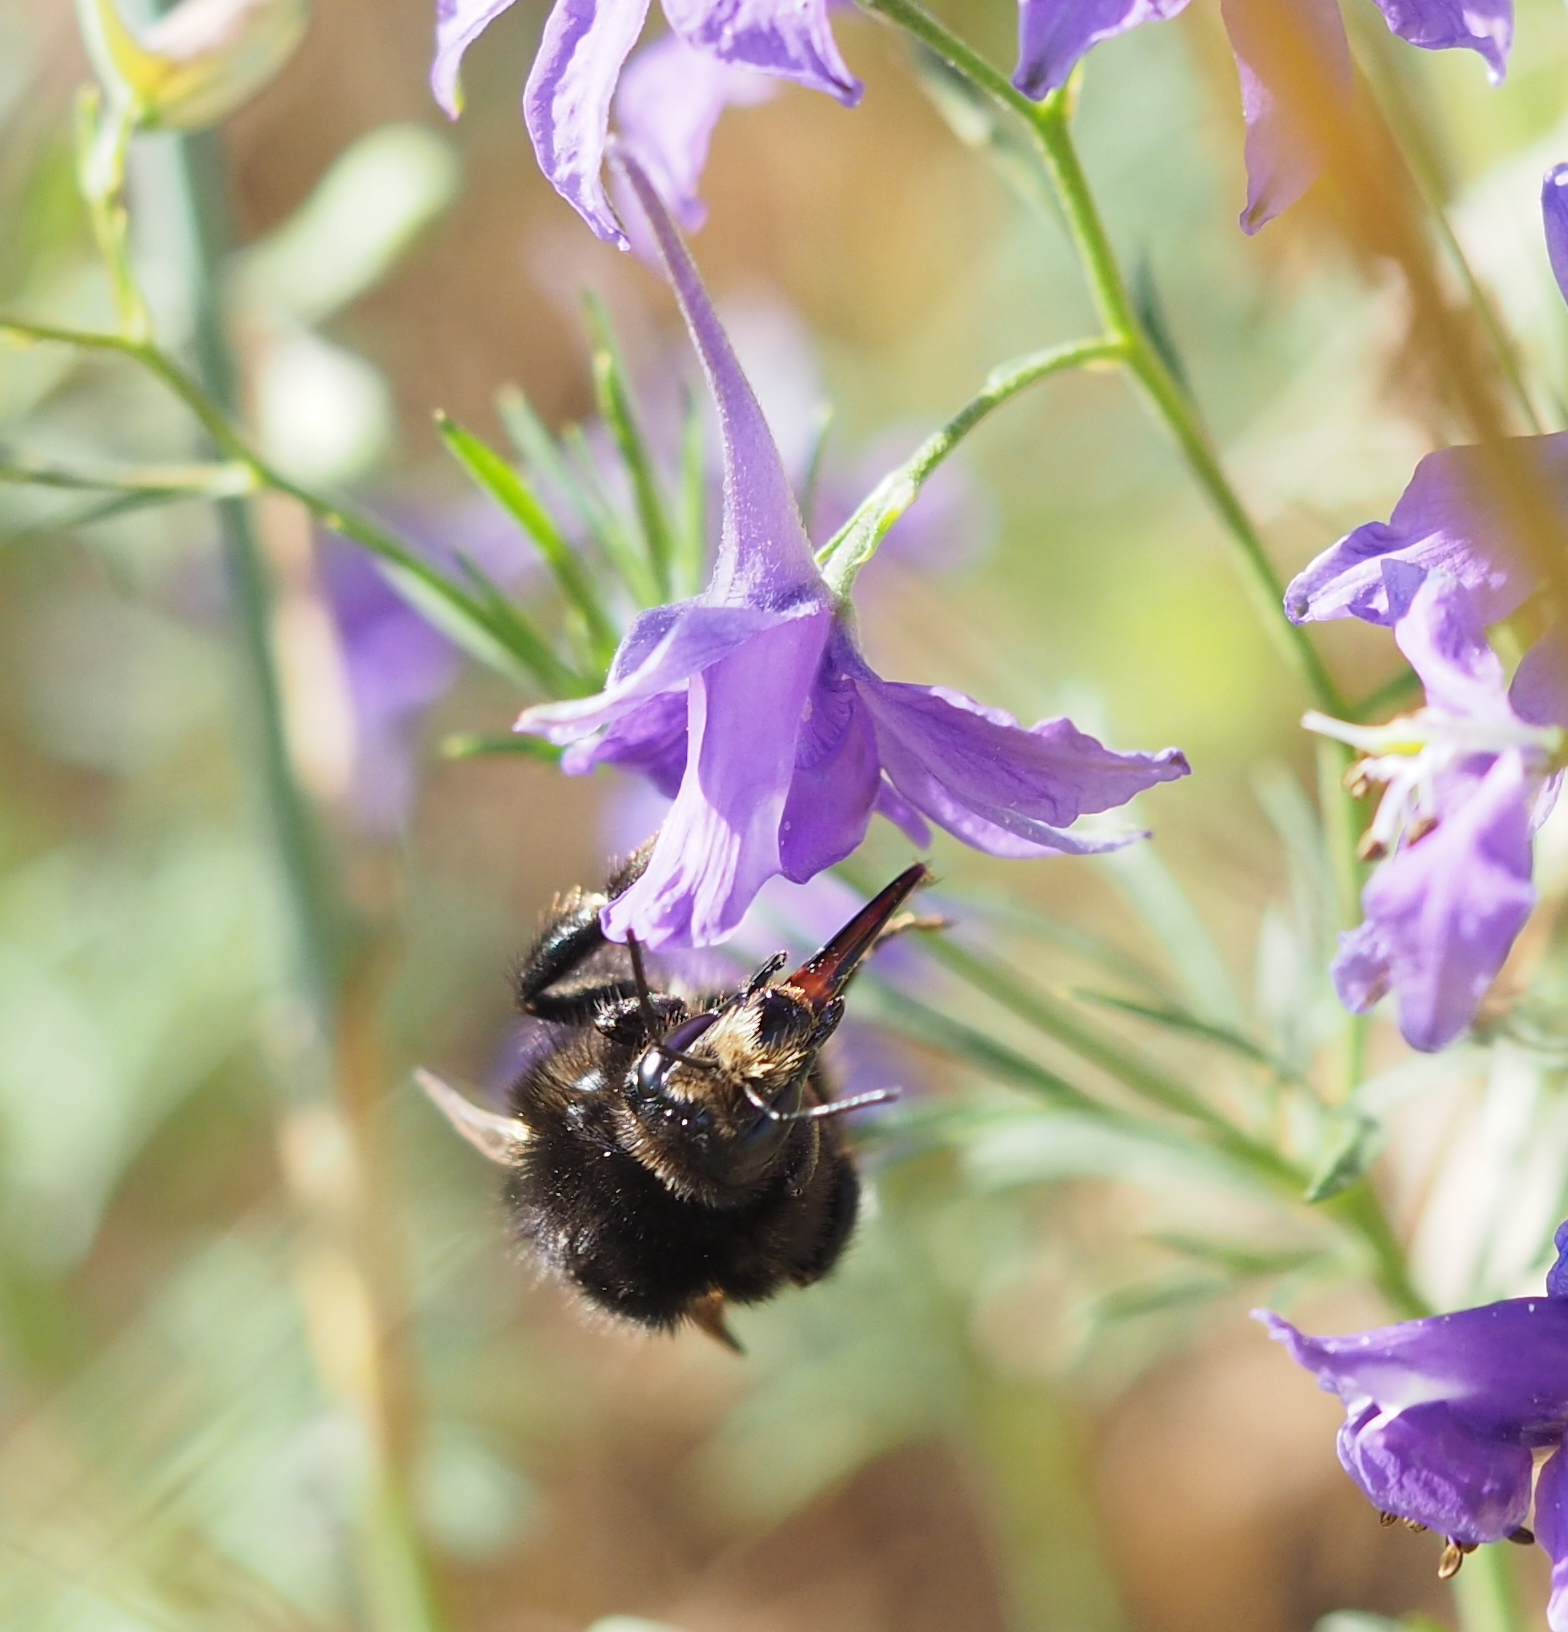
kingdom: Animalia
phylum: Arthropoda
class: Insecta
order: Hymenoptera
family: Apidae
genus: Bombus
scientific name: Bombus humilis
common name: Brown-banded carder-bee
